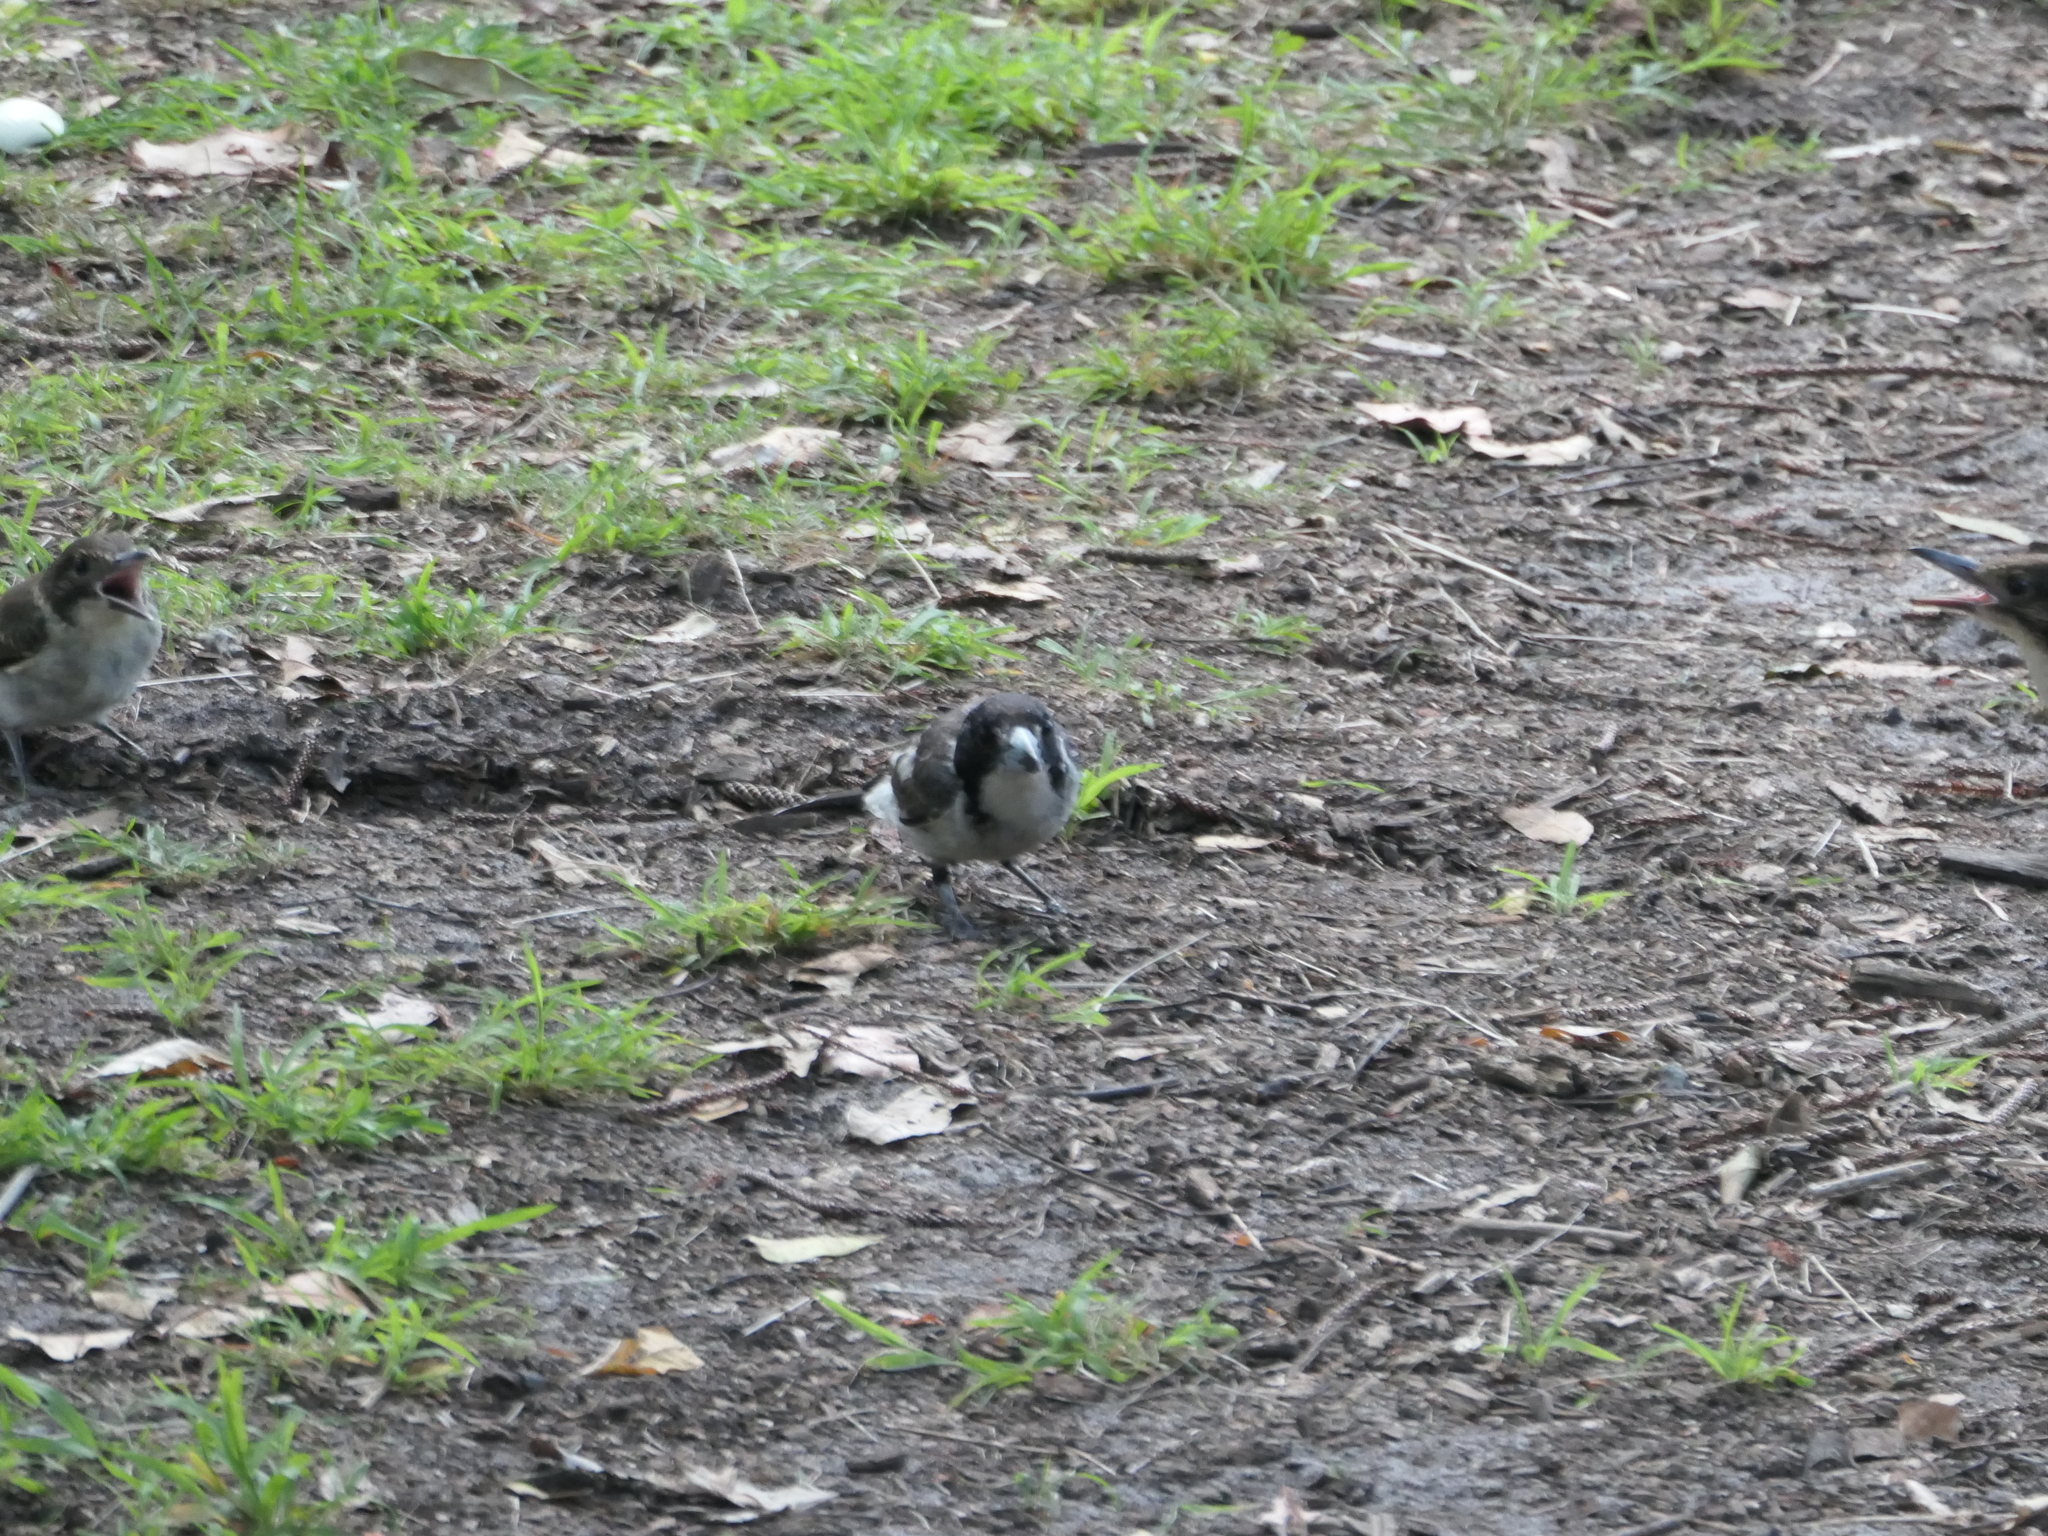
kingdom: Animalia
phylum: Chordata
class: Aves
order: Passeriformes
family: Cracticidae
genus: Cracticus
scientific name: Cracticus torquatus
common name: Grey butcherbird
